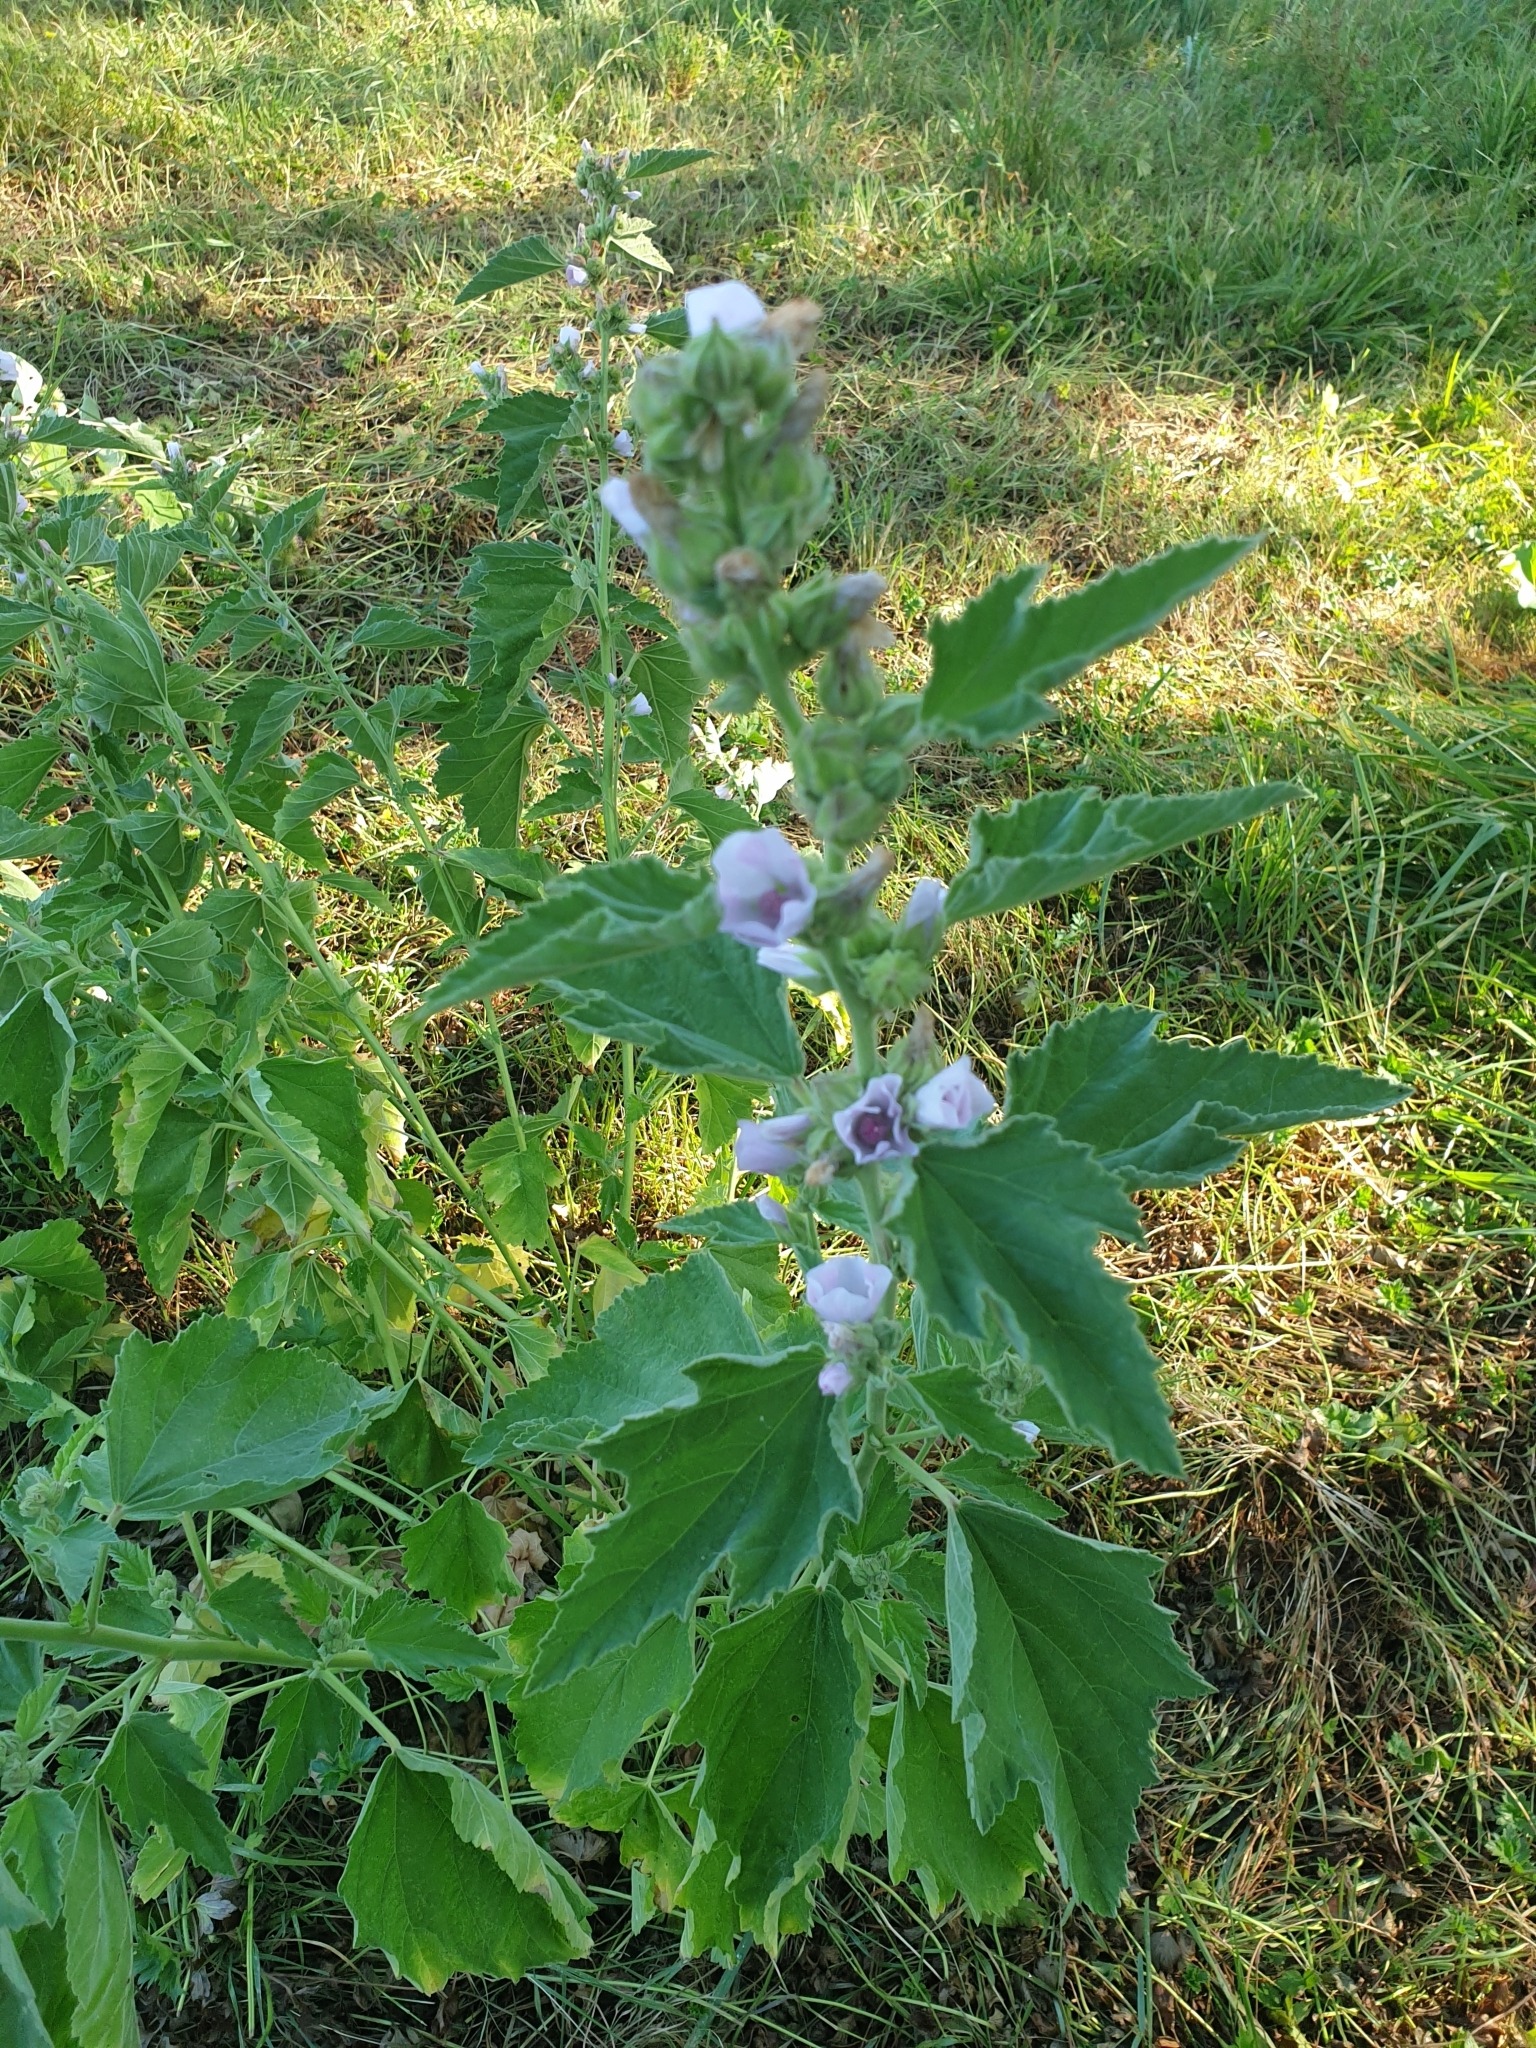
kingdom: Plantae
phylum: Tracheophyta
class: Magnoliopsida
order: Malvales
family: Malvaceae
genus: Althaea
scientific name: Althaea officinalis
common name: Marsh-mallow
